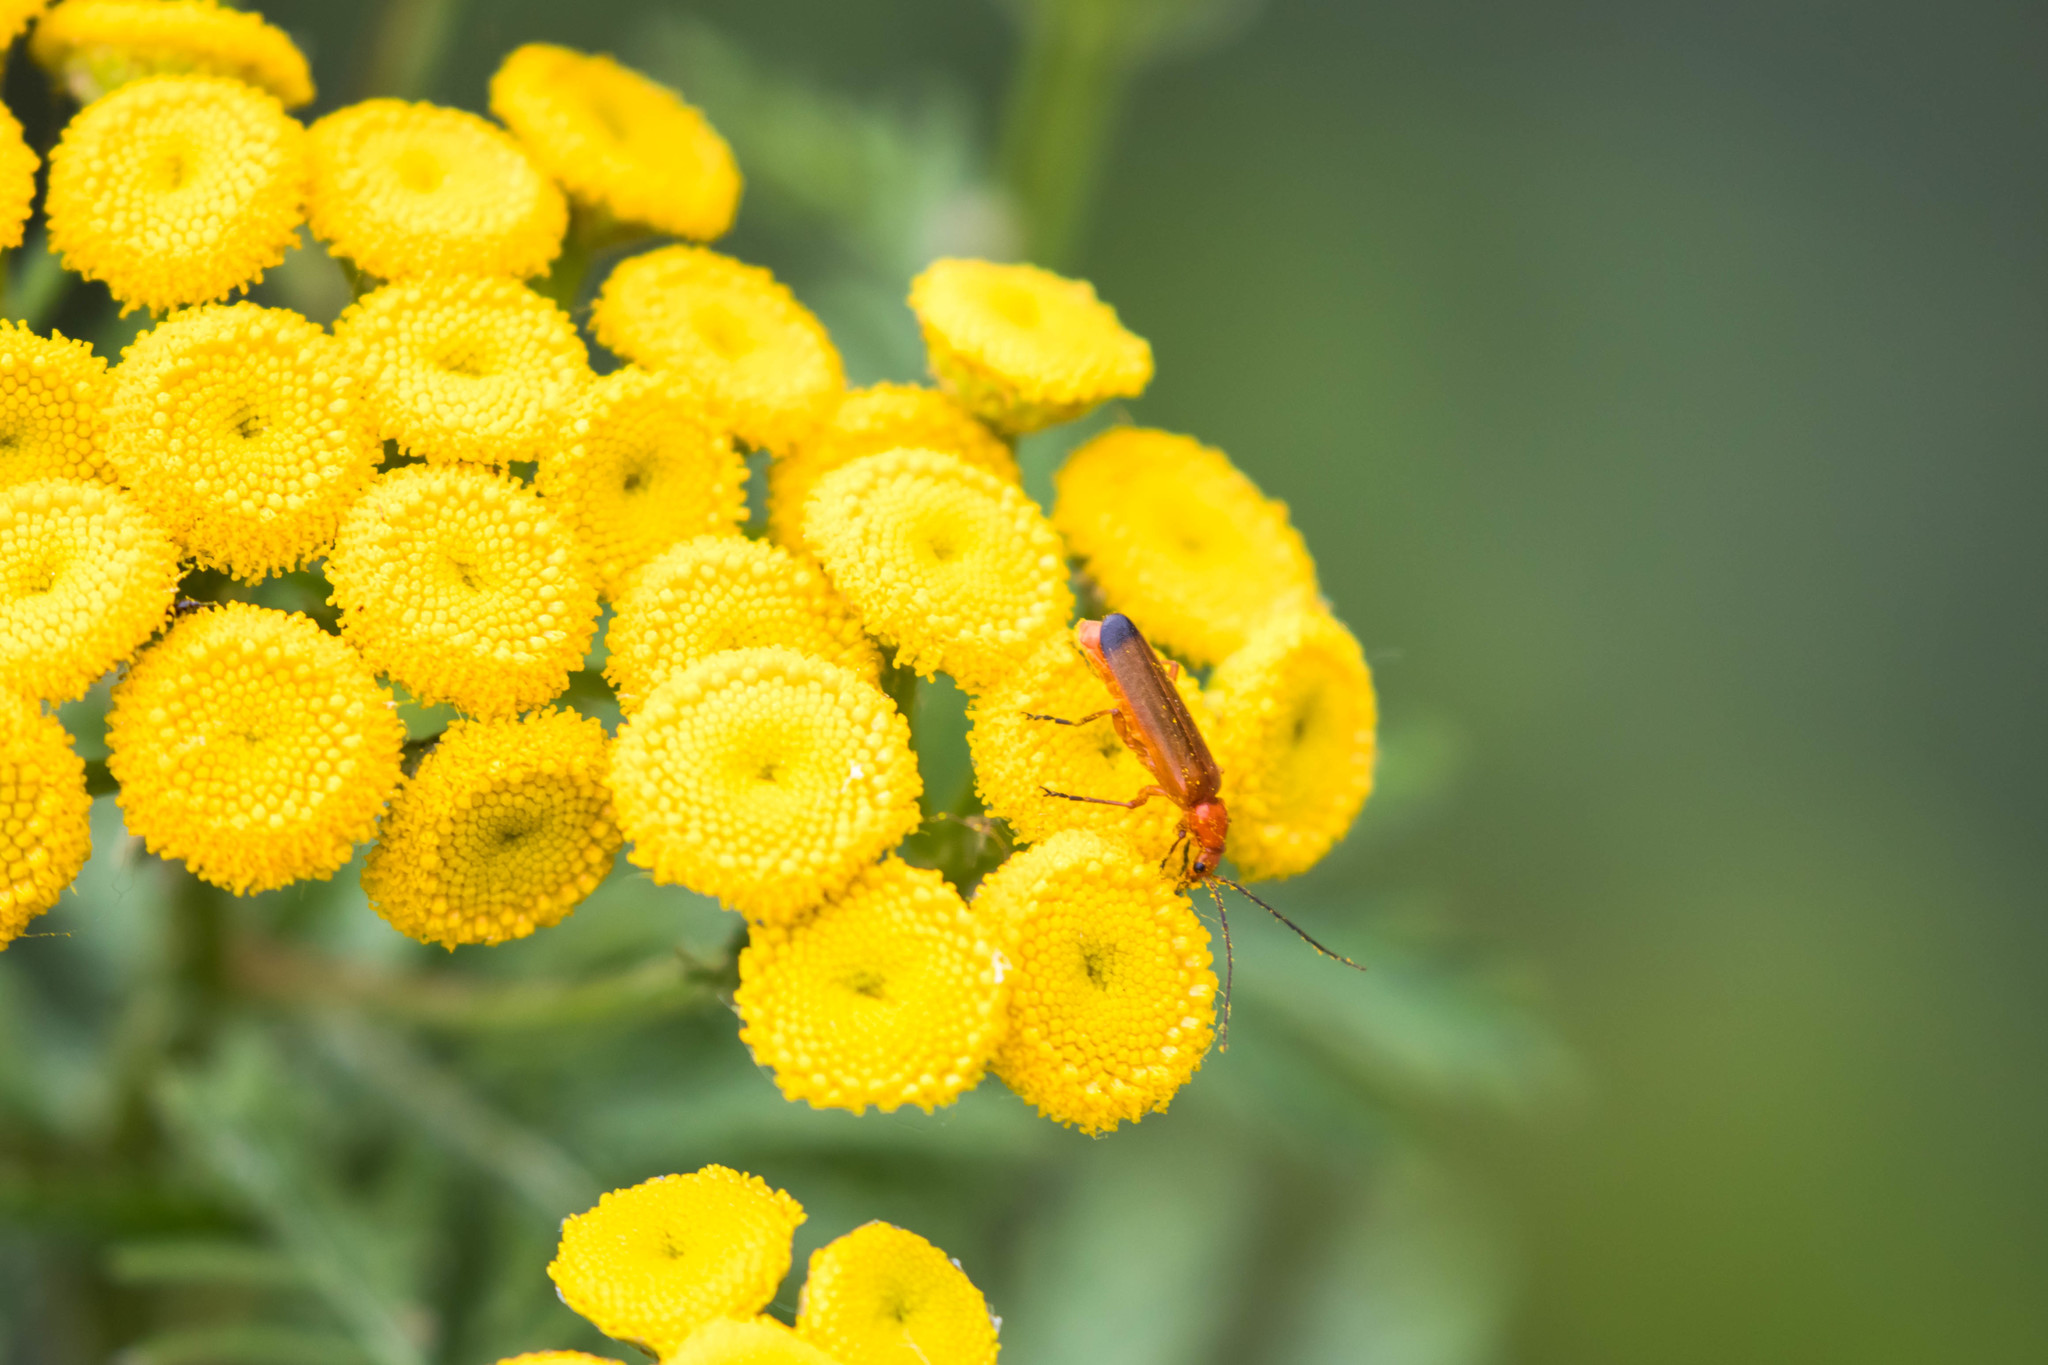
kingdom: Animalia
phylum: Arthropoda
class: Insecta
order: Coleoptera
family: Cantharidae
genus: Rhagonycha
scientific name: Rhagonycha fulva
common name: Common red soldier beetle
